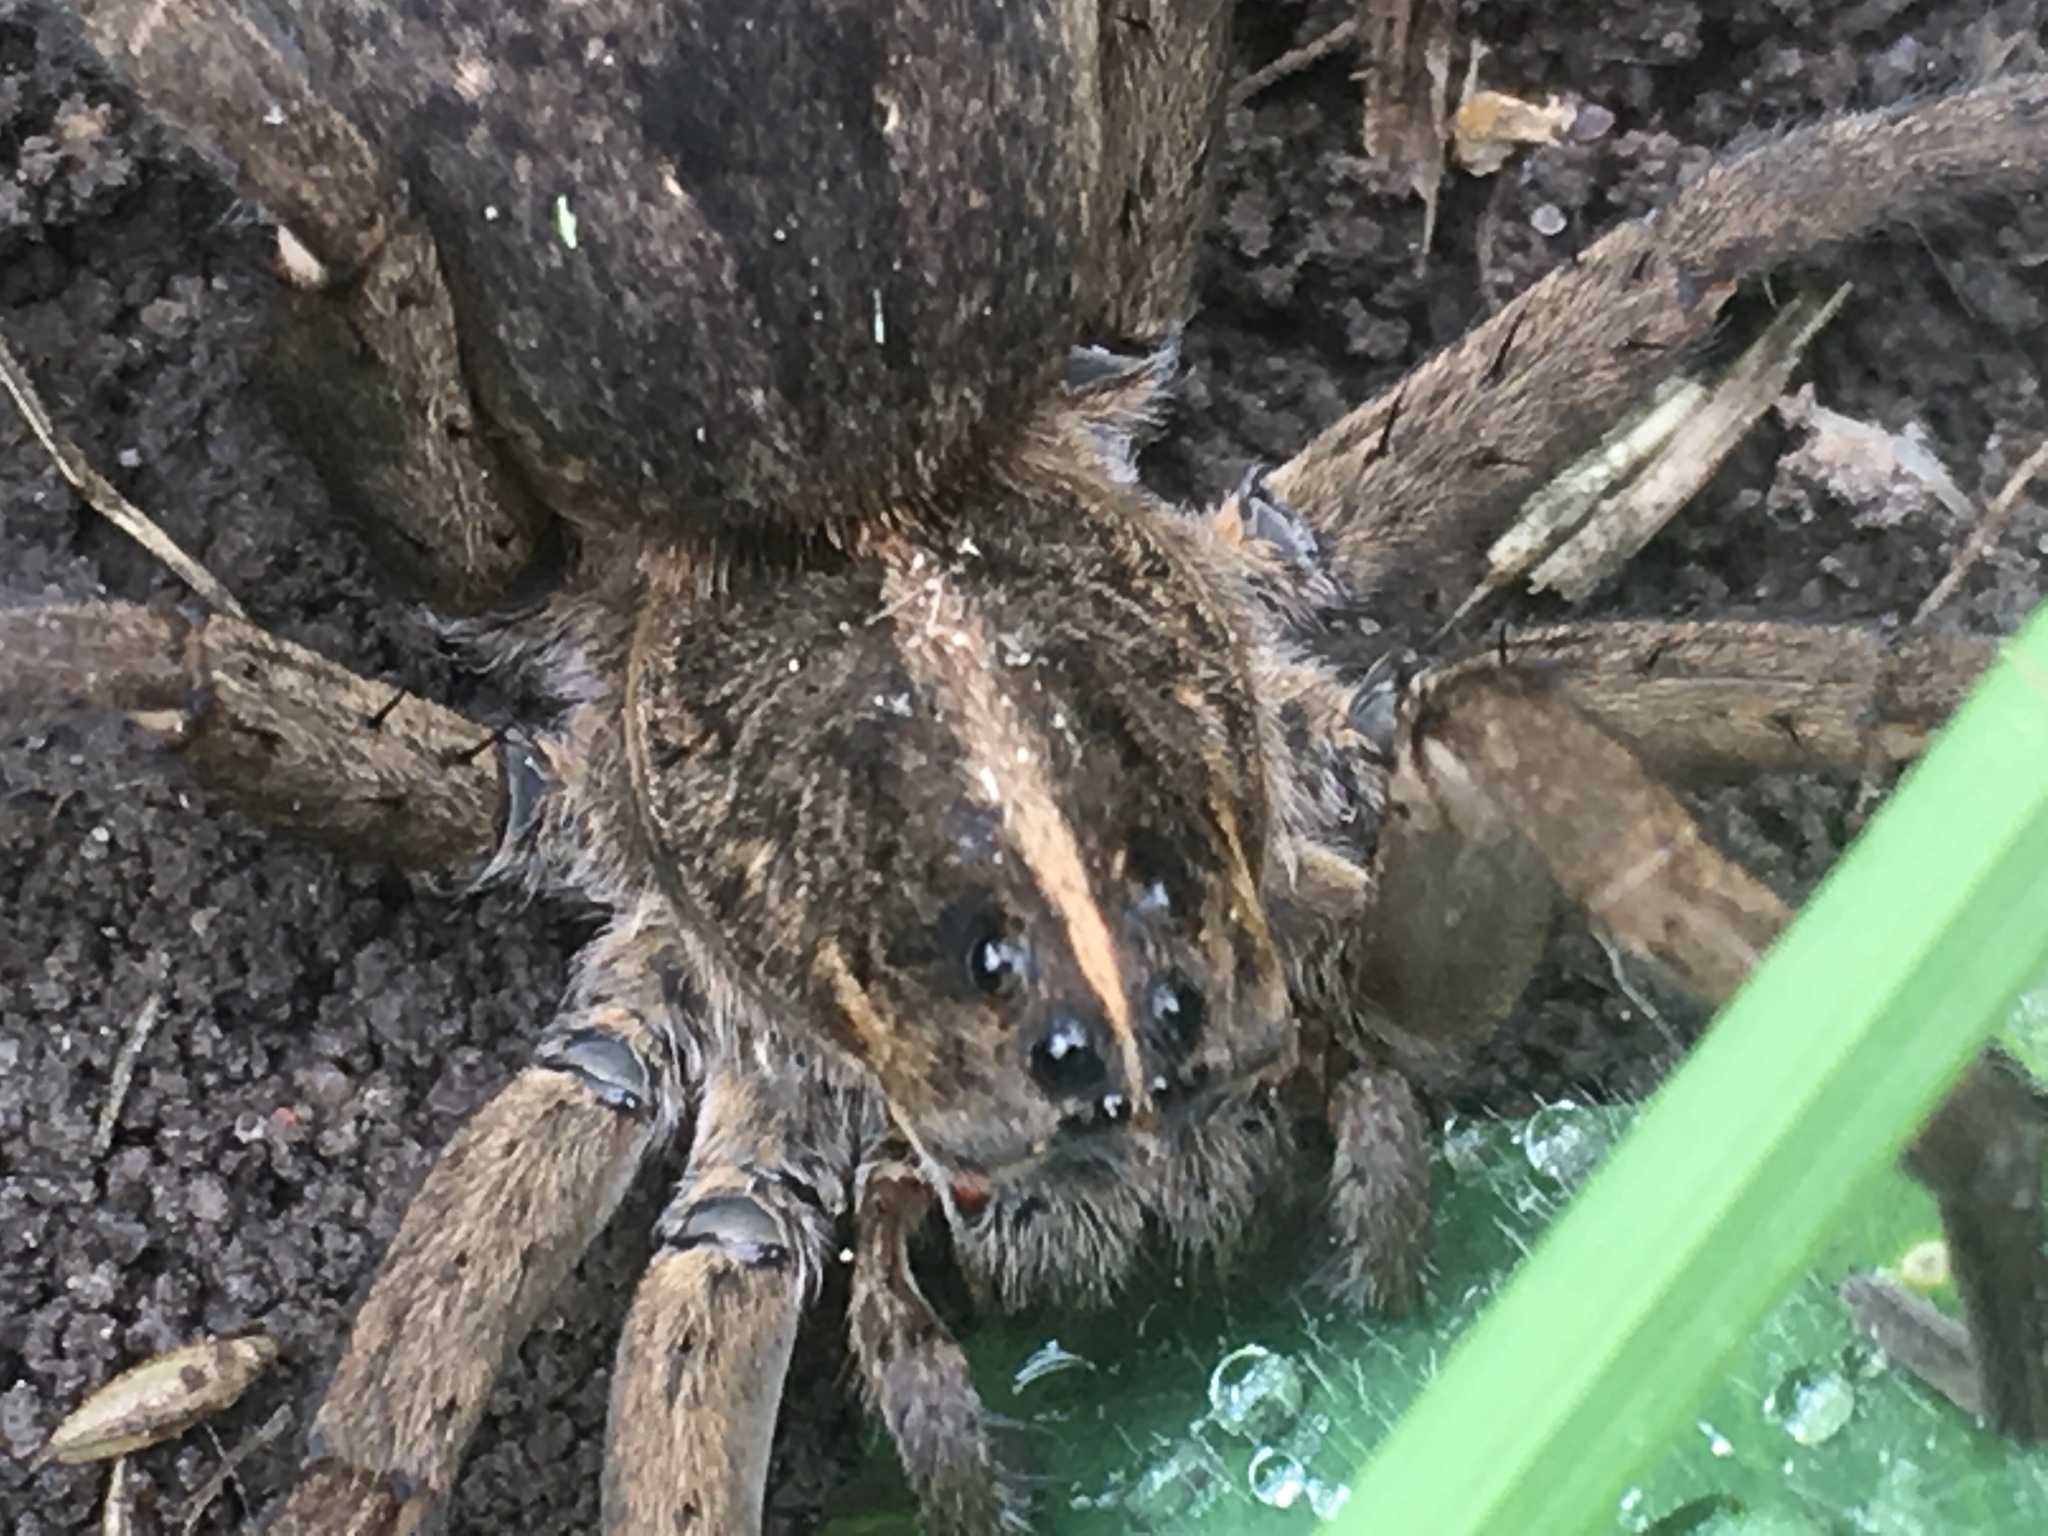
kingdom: Animalia
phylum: Arthropoda
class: Arachnida
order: Araneae
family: Lycosidae
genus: Tigrosa
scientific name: Tigrosa helluo
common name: Wetland giant wolf spider
